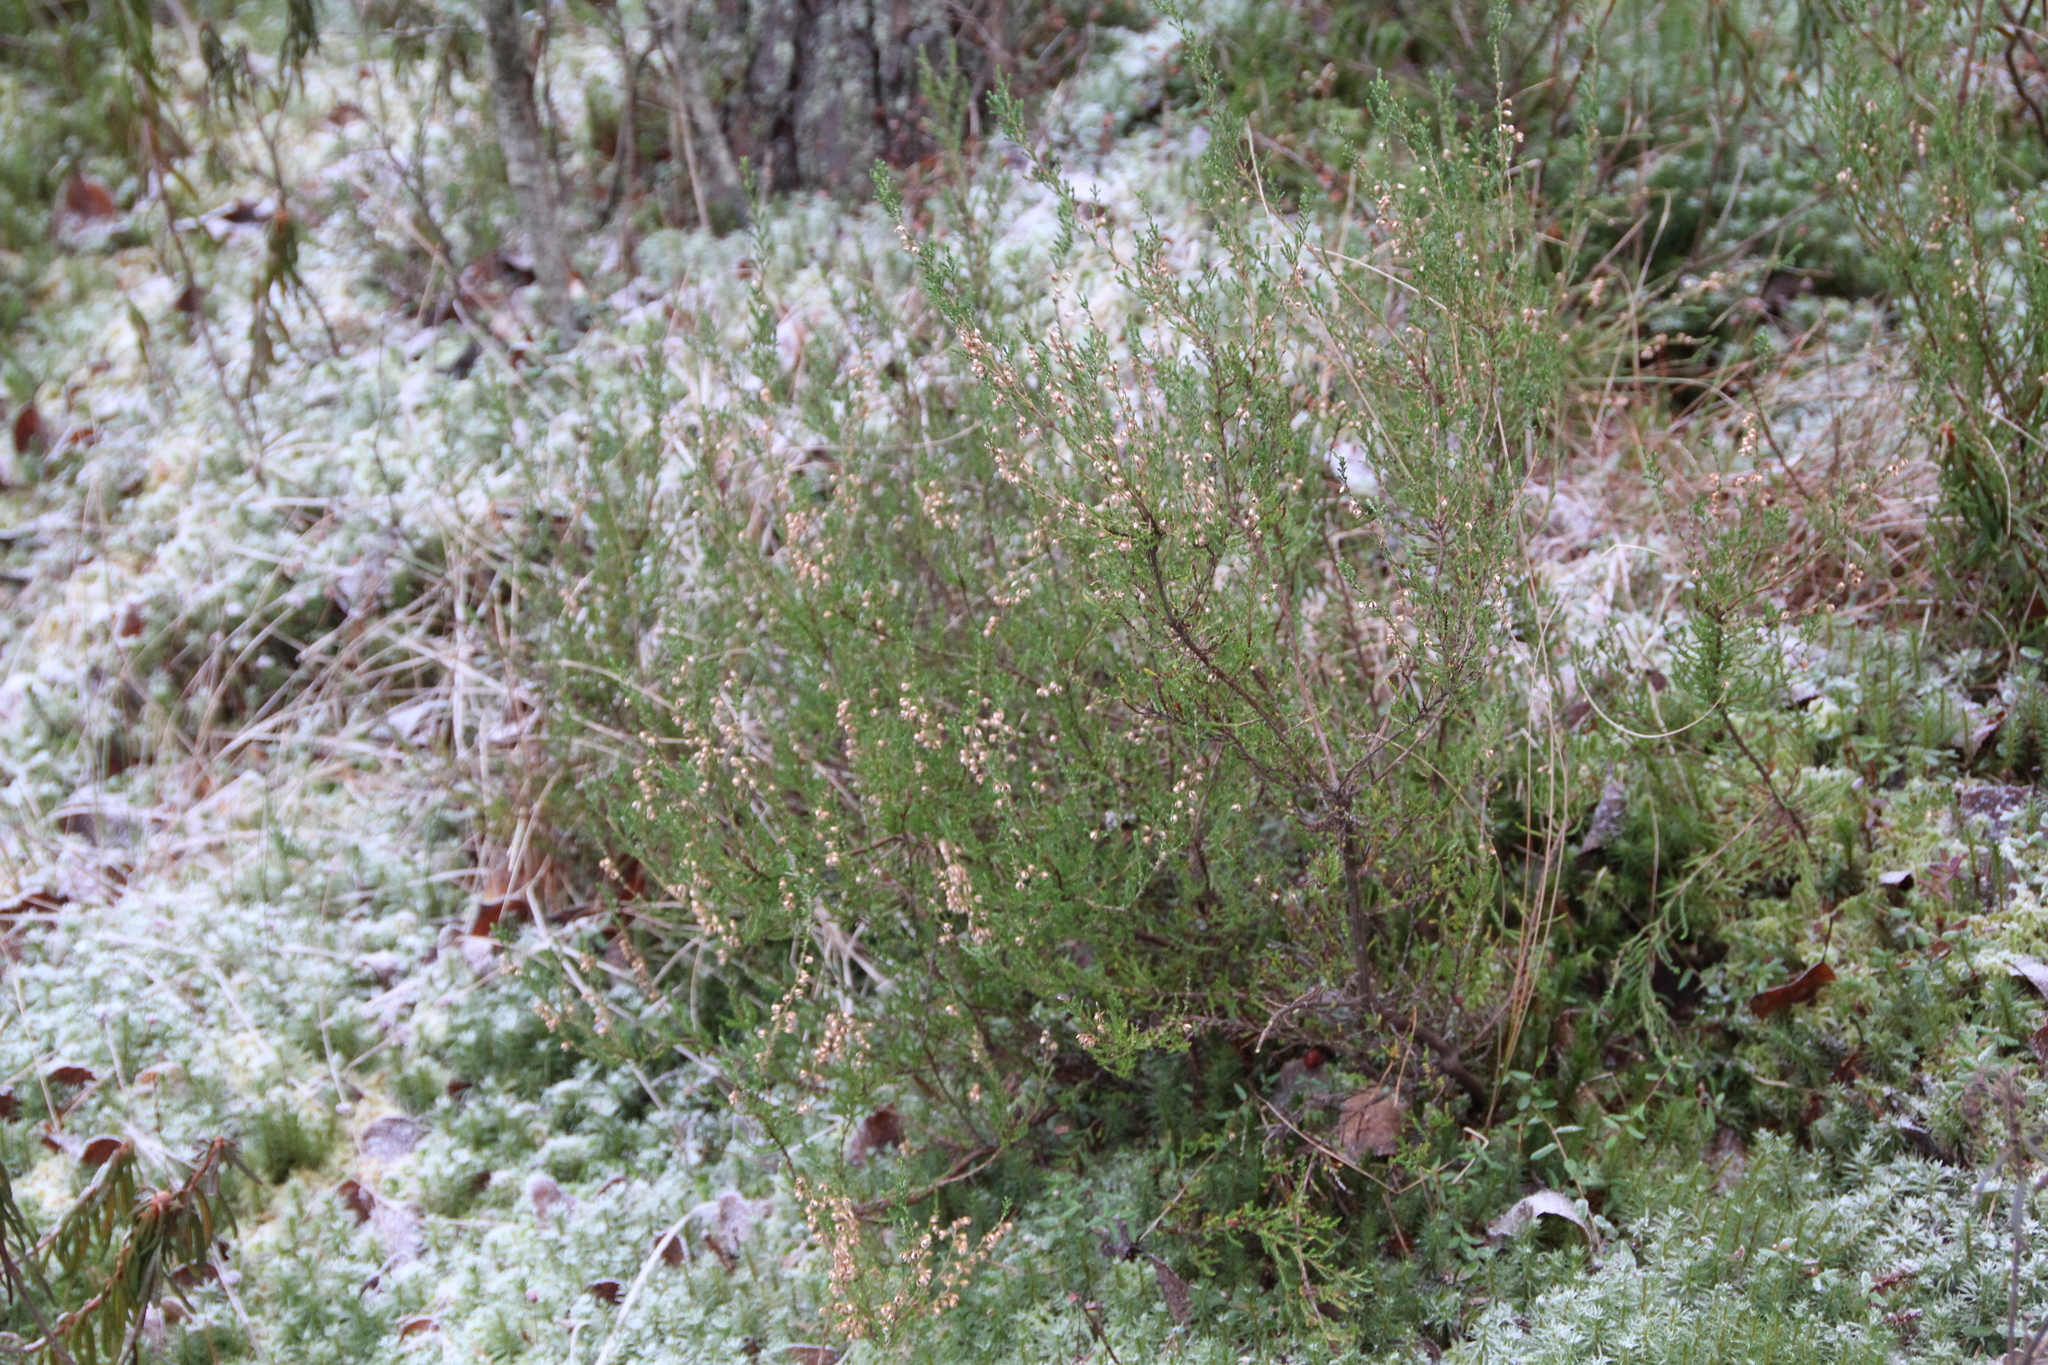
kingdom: Plantae
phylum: Tracheophyta
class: Magnoliopsida
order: Ericales
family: Ericaceae
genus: Calluna
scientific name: Calluna vulgaris
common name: Heather
